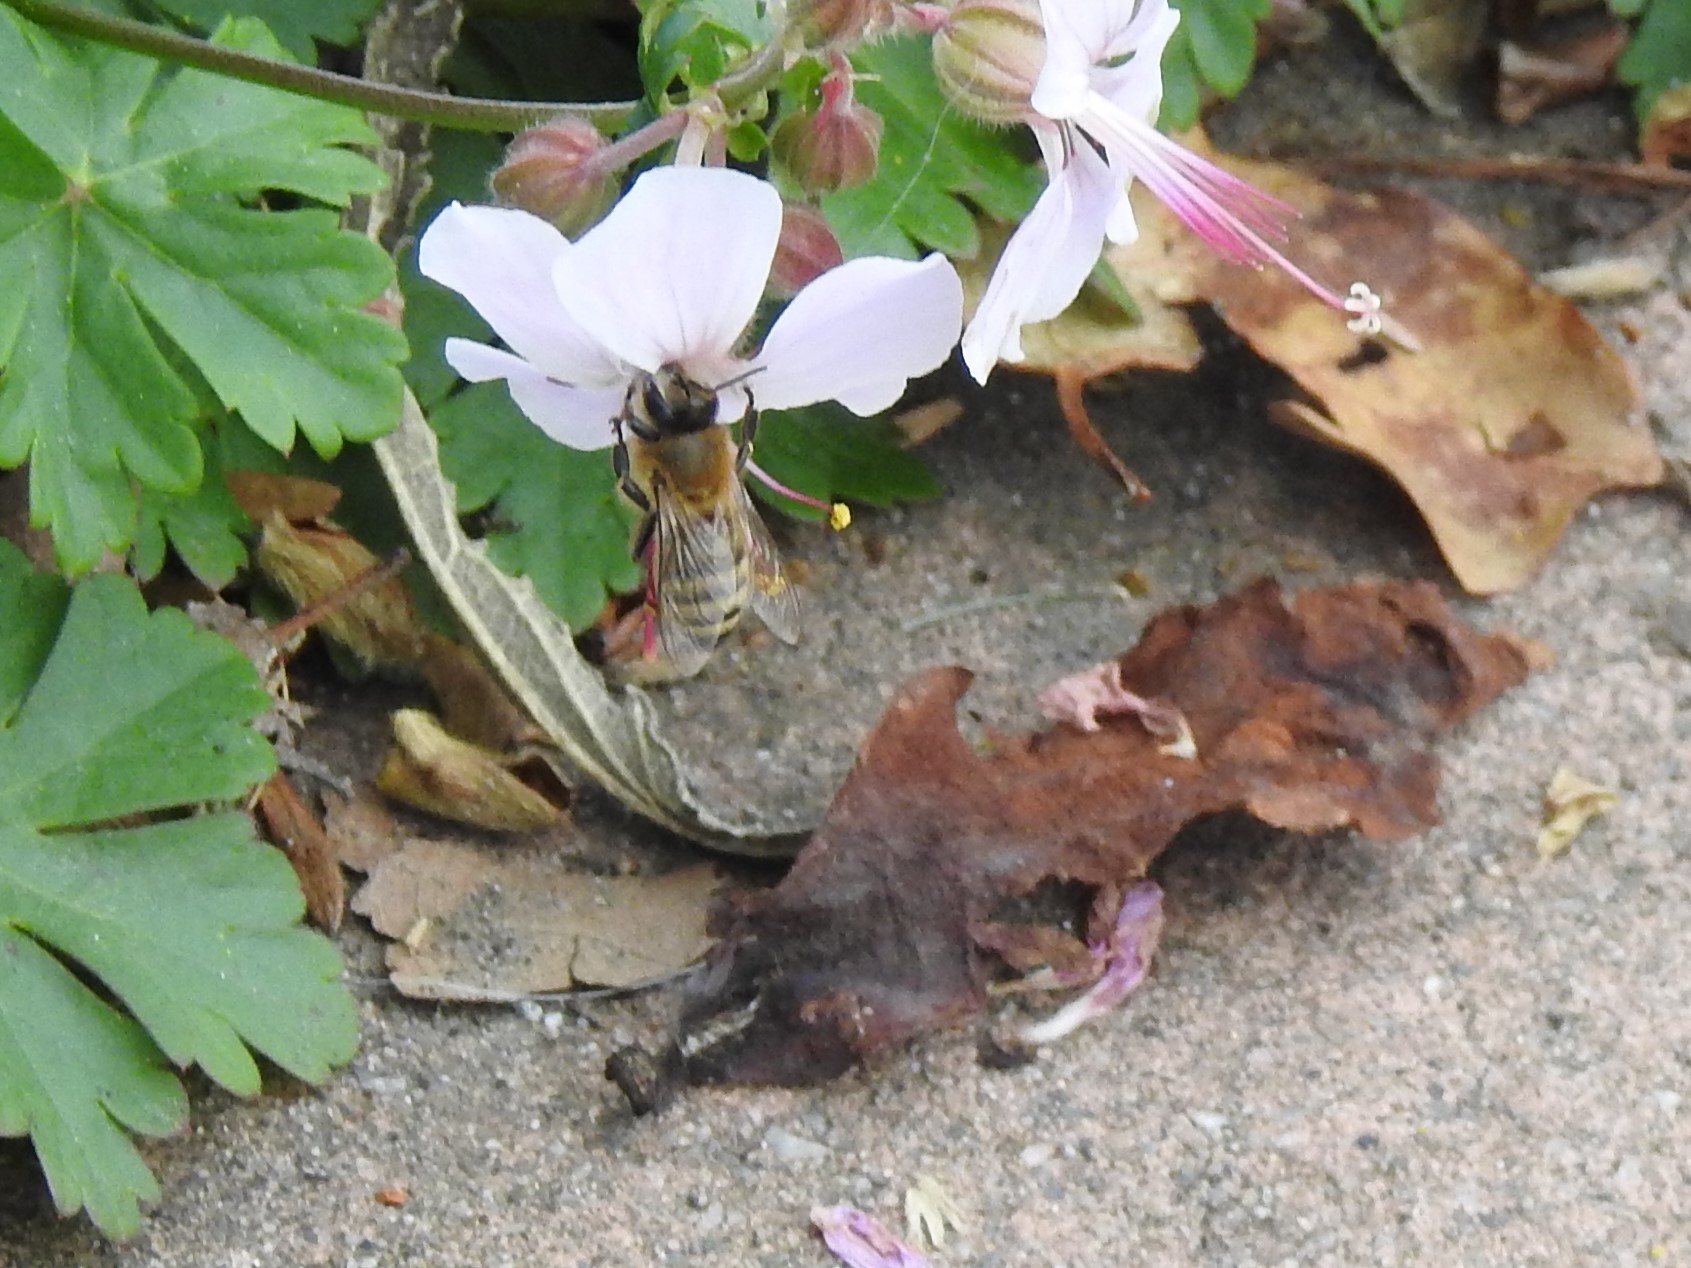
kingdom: Animalia
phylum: Arthropoda
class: Insecta
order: Hymenoptera
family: Apidae
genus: Apis
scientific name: Apis mellifera
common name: Honey bee
